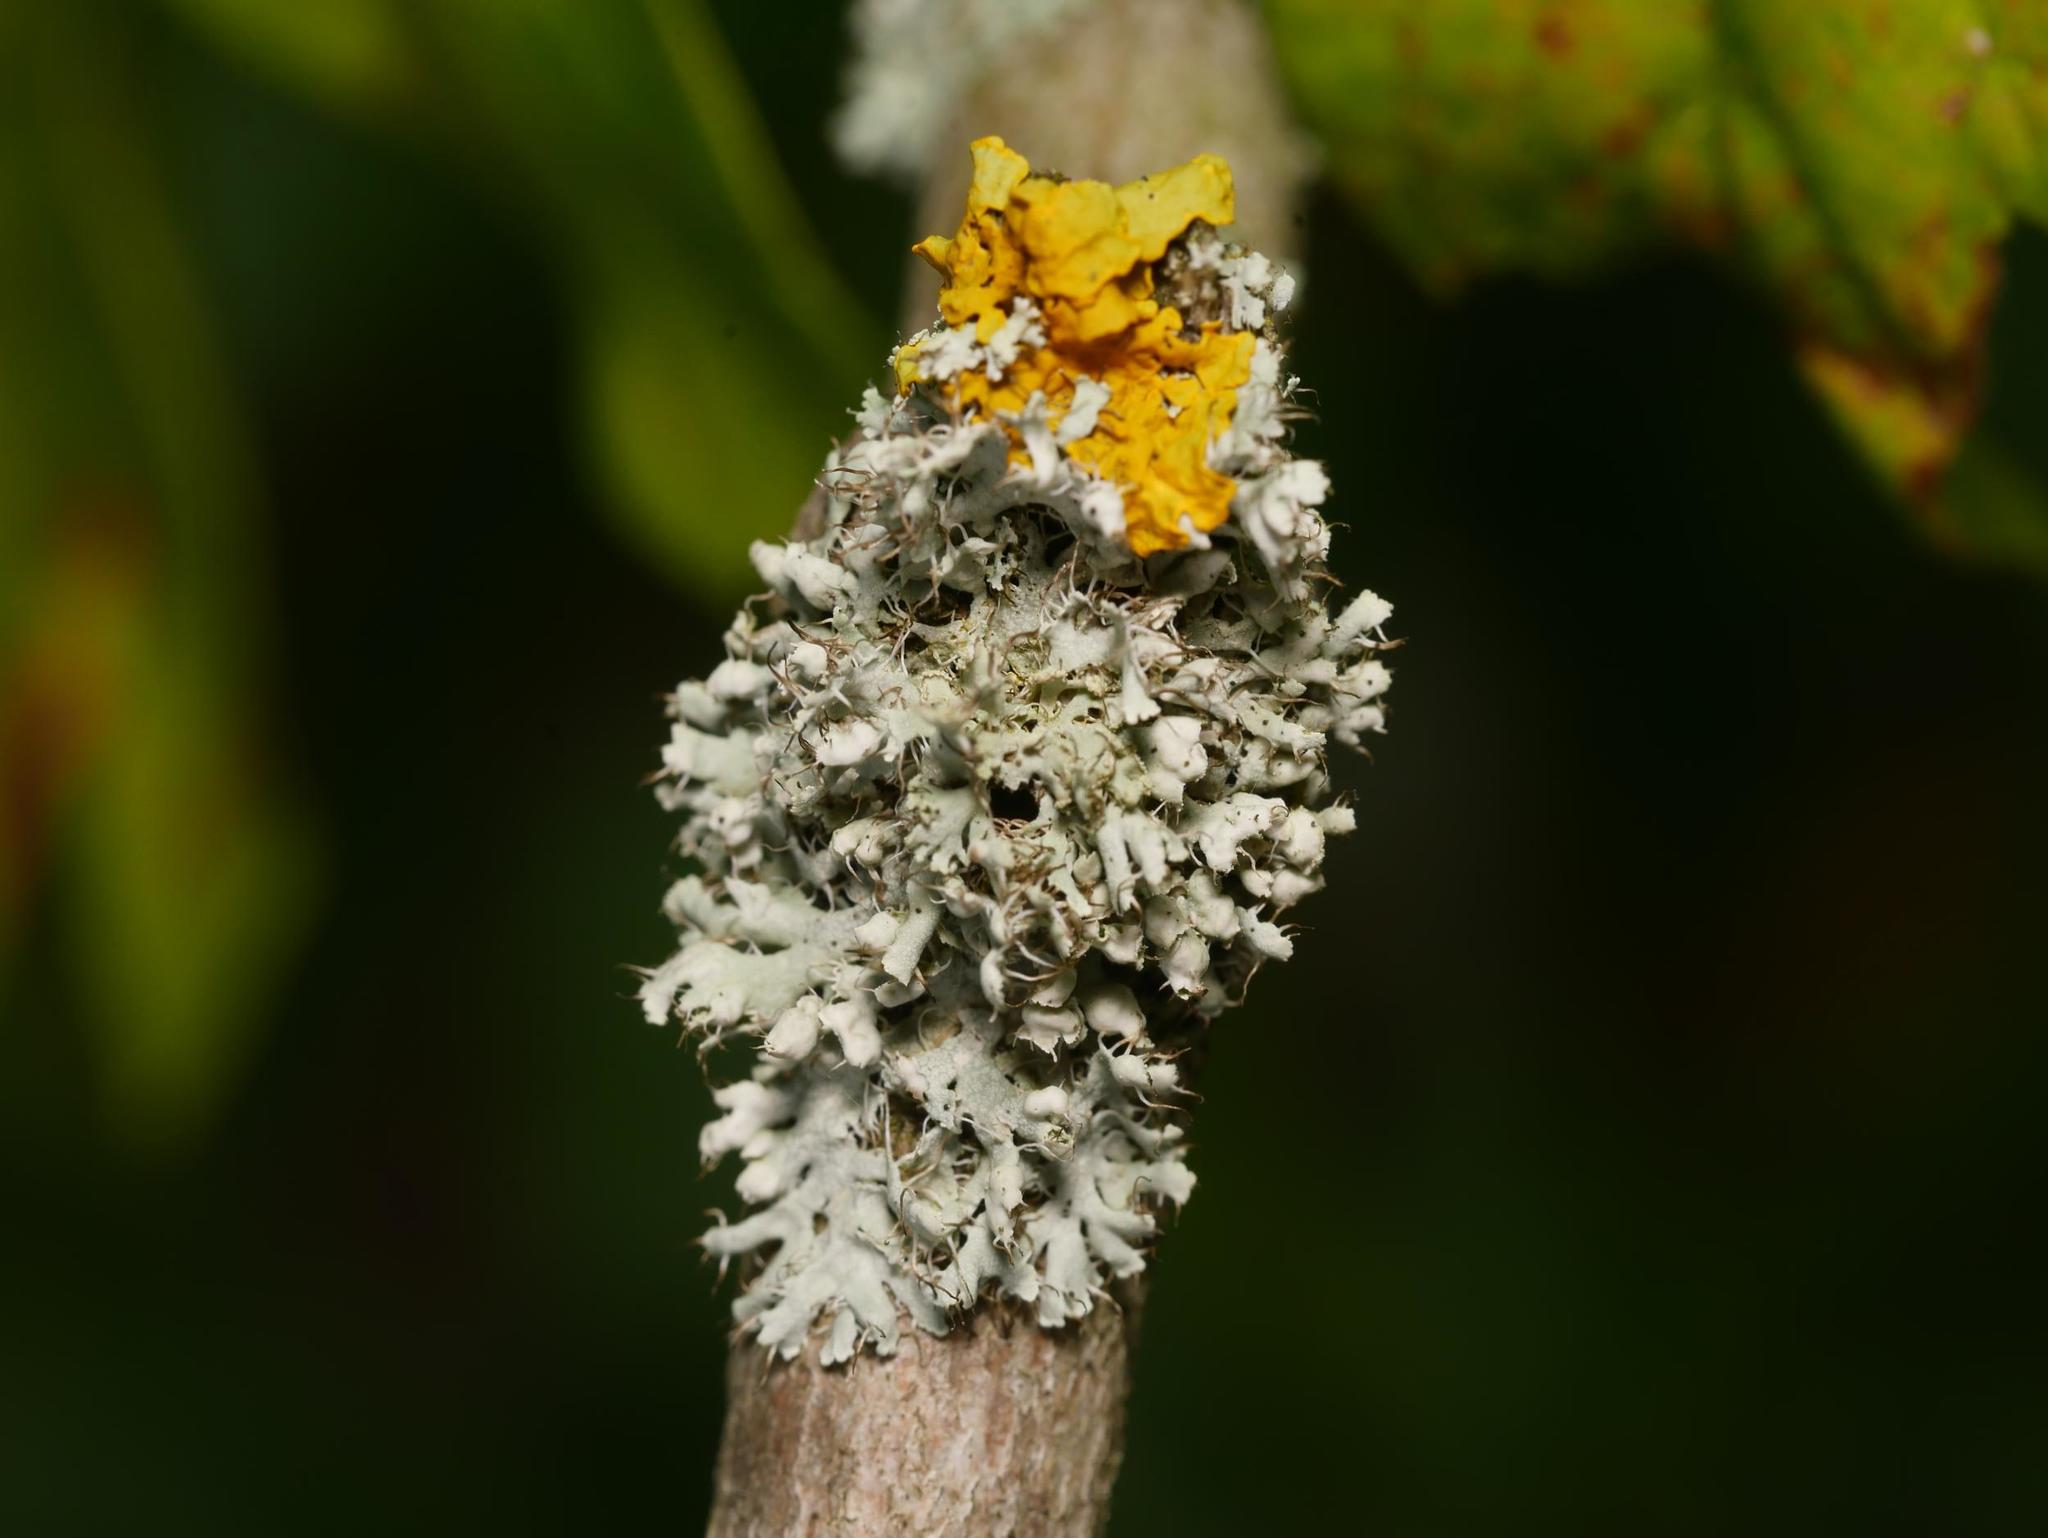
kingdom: Fungi
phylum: Ascomycota
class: Lecanoromycetes
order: Caliciales
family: Physciaceae
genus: Physcia
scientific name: Physcia adscendens
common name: Hooded rosette lichen
